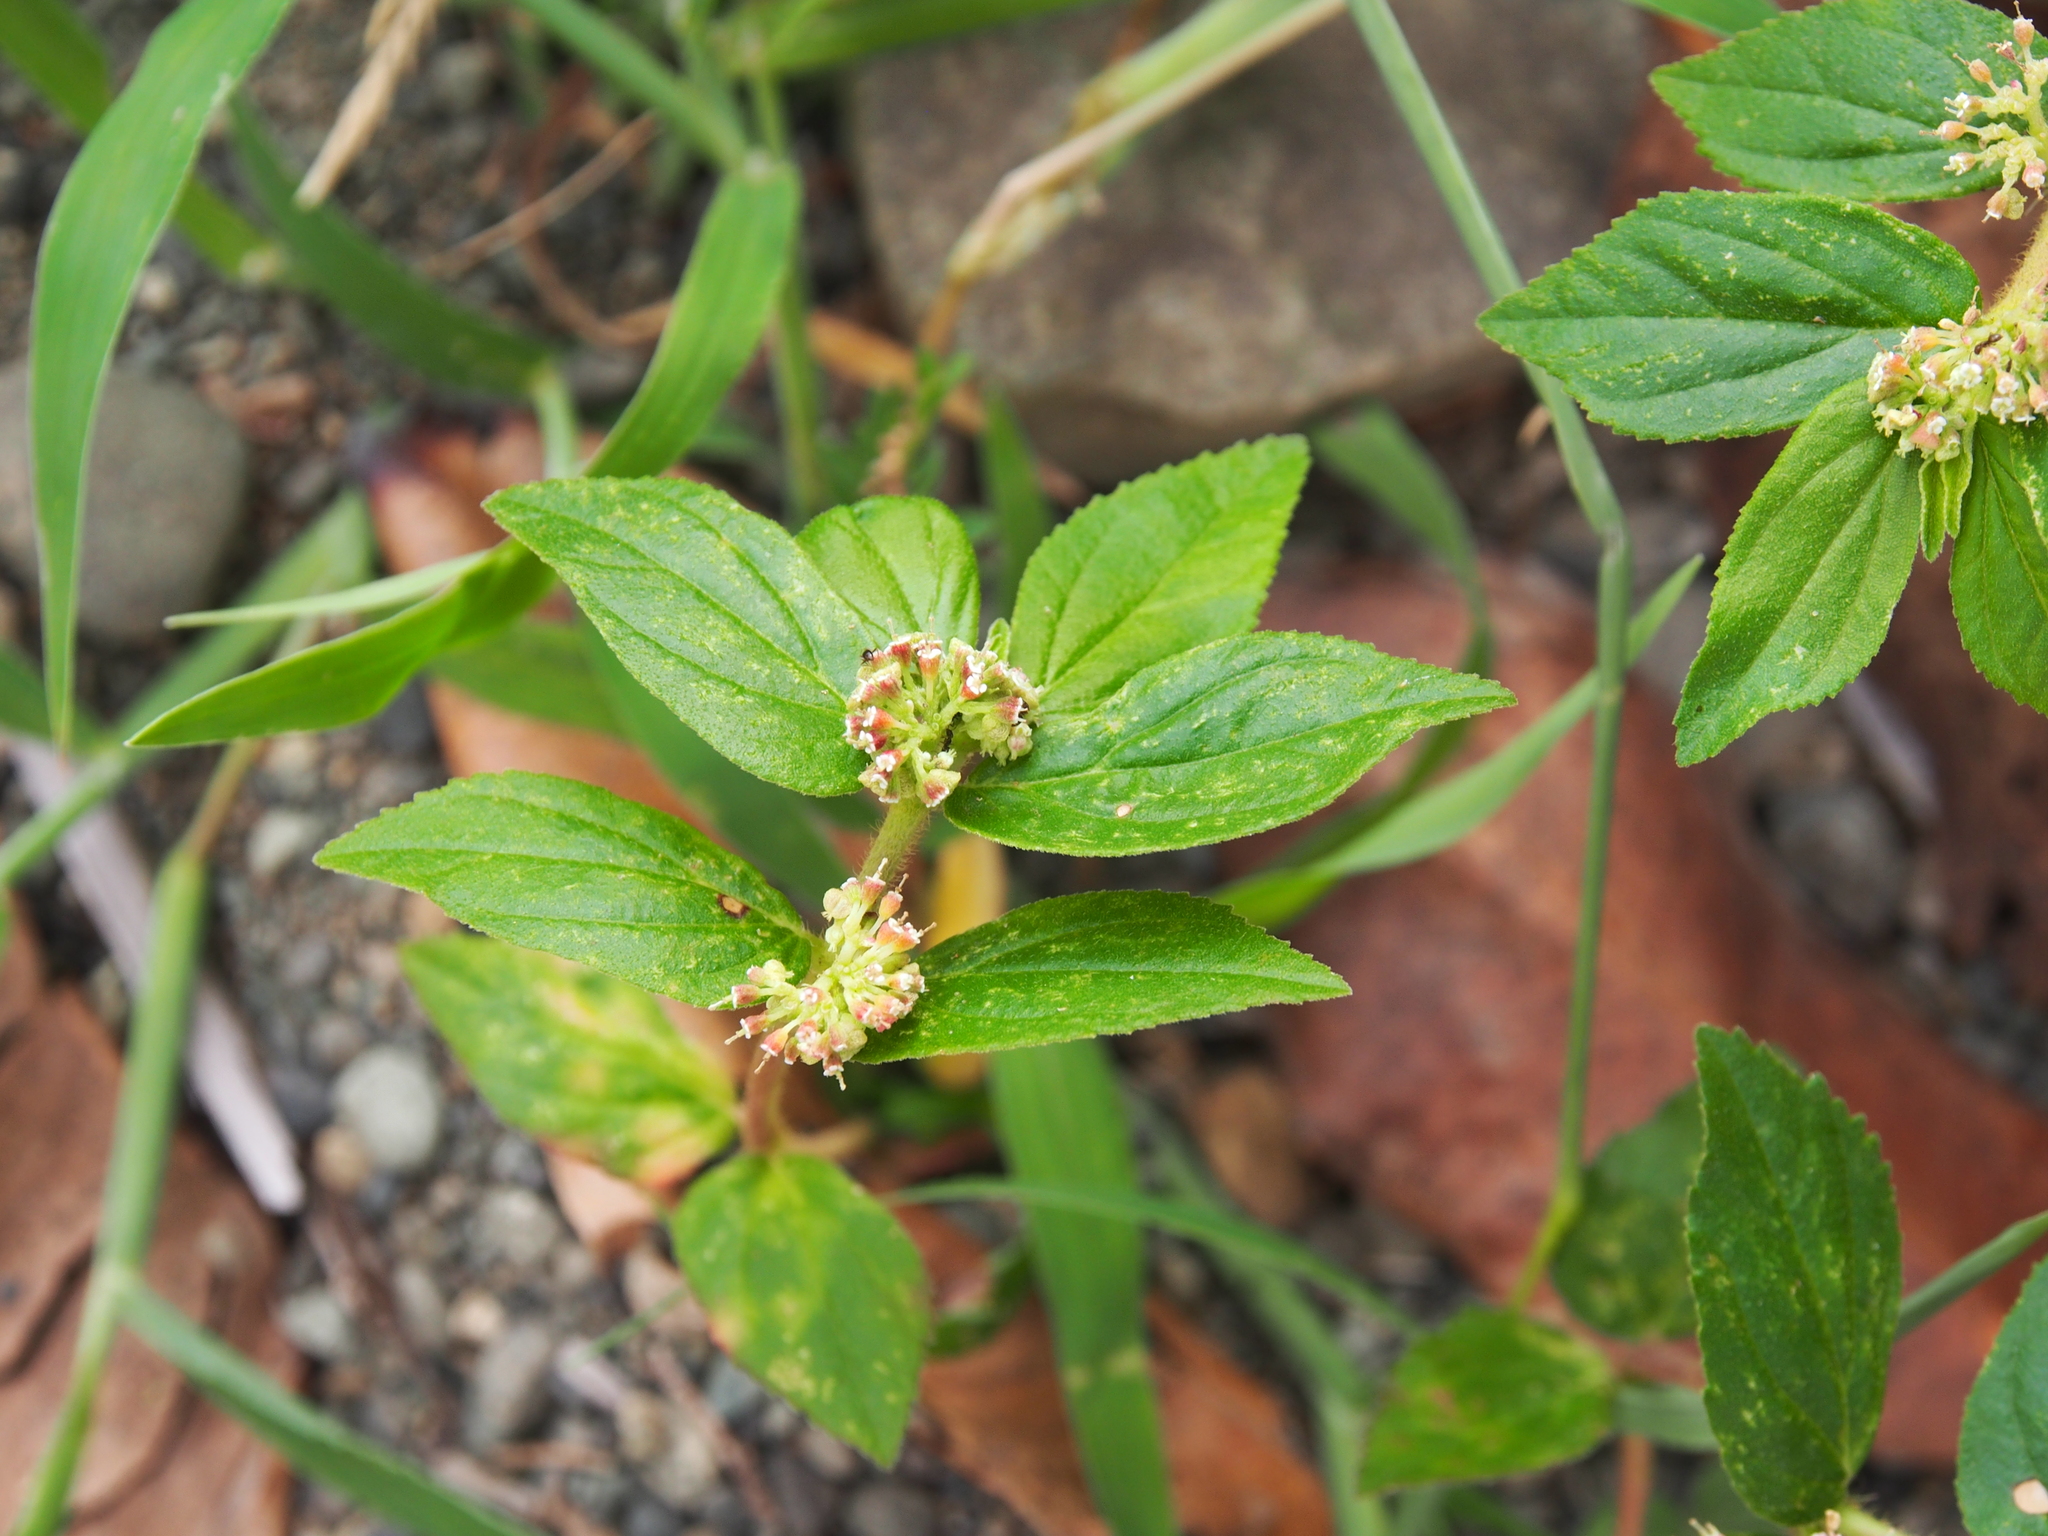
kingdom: Plantae
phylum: Tracheophyta
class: Magnoliopsida
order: Malpighiales
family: Euphorbiaceae
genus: Euphorbia
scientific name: Euphorbia hirta
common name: Pillpod sandmat
